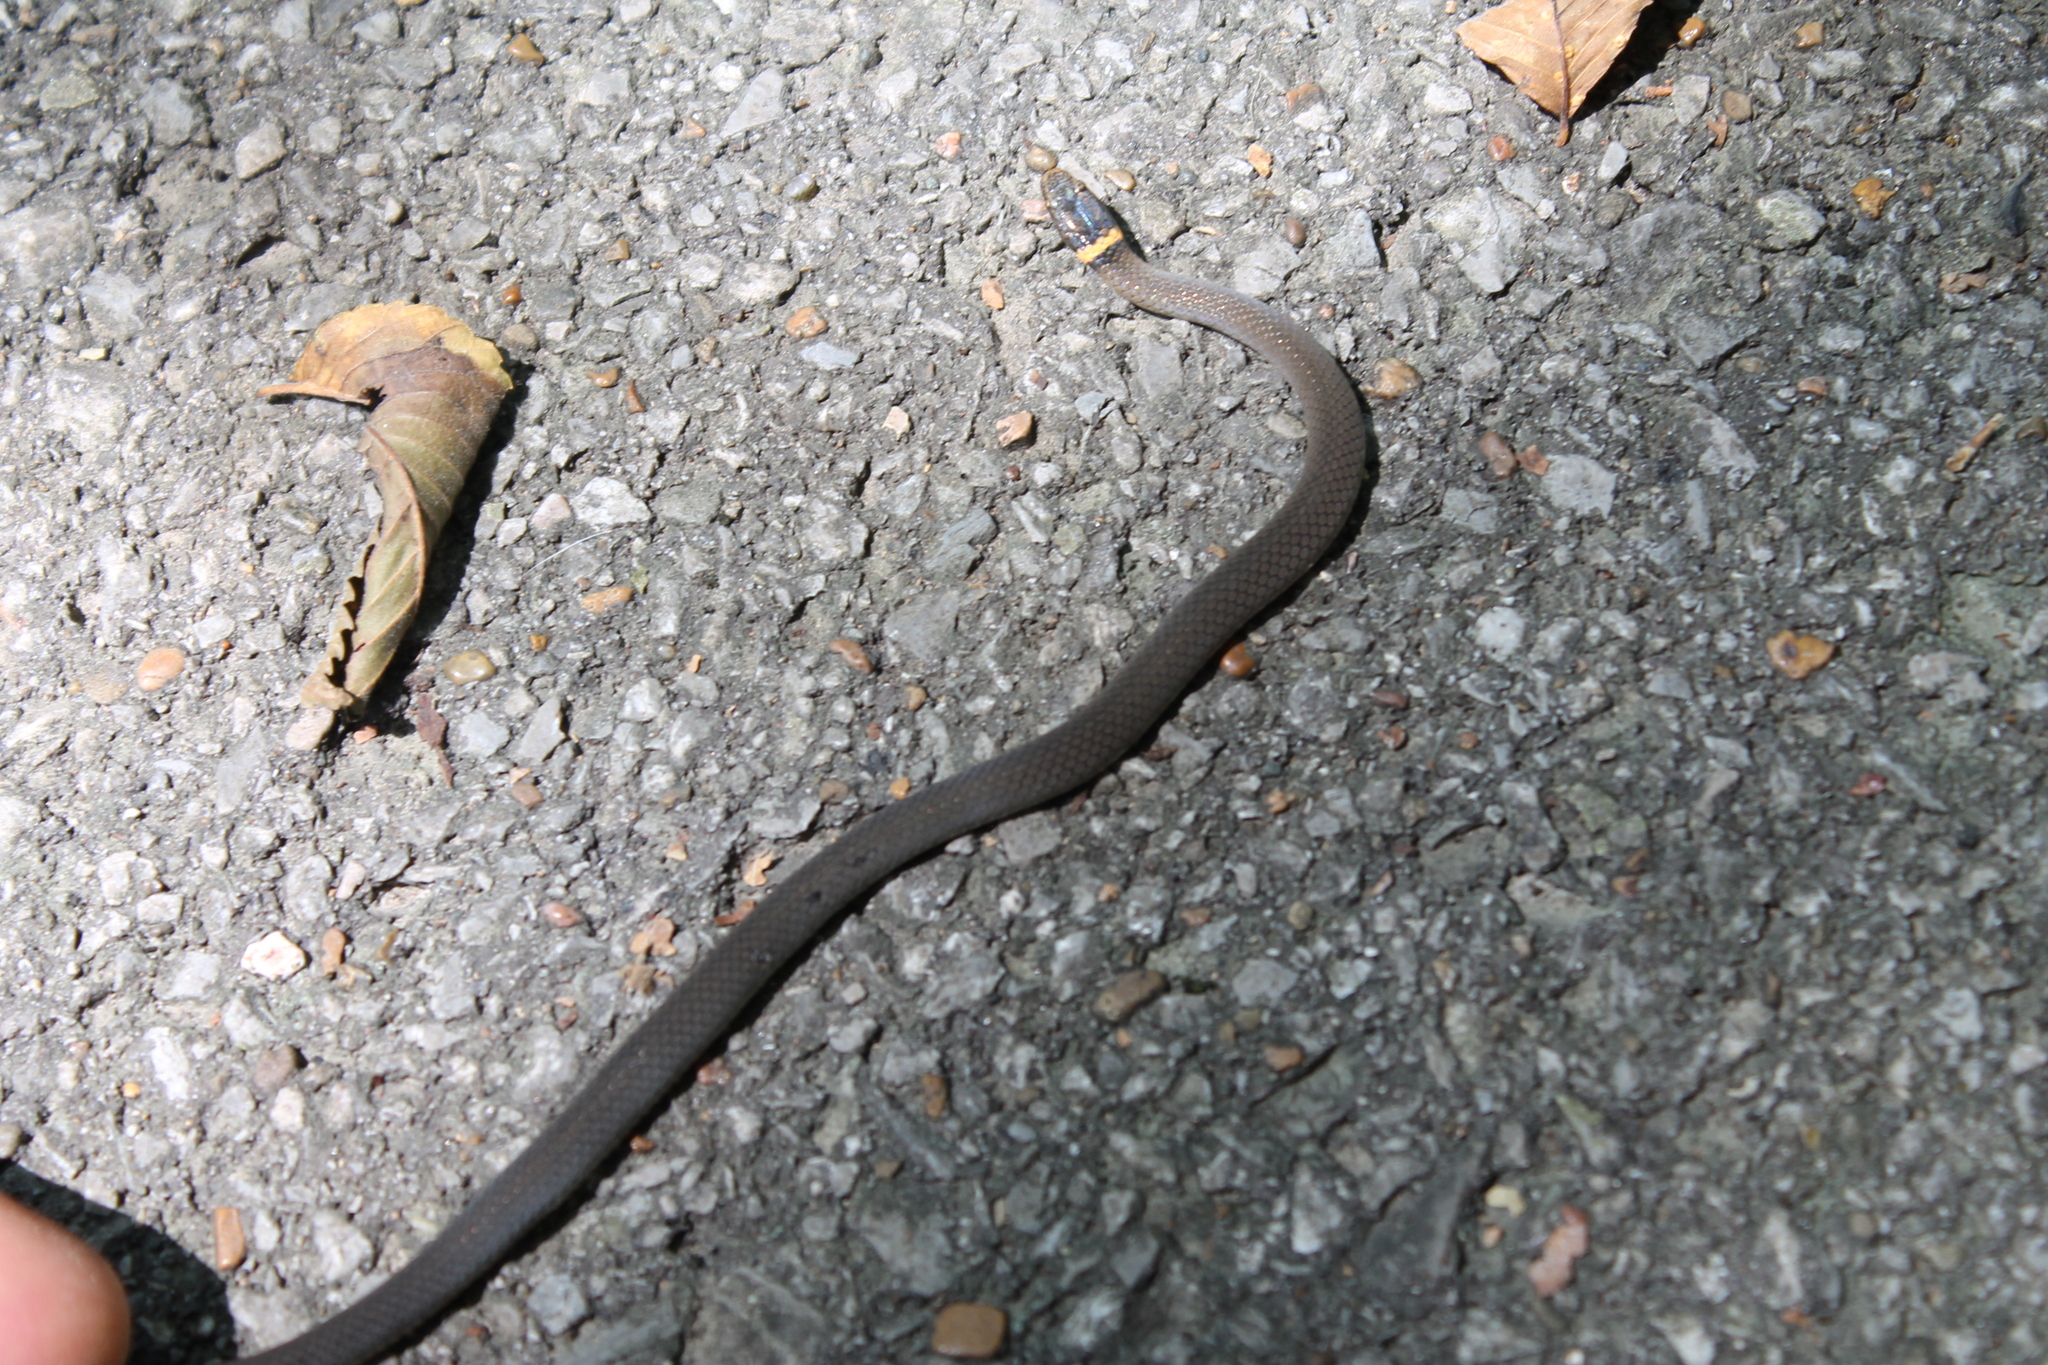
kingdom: Animalia
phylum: Chordata
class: Squamata
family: Colubridae
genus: Diadophis
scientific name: Diadophis punctatus
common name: Ringneck snake
